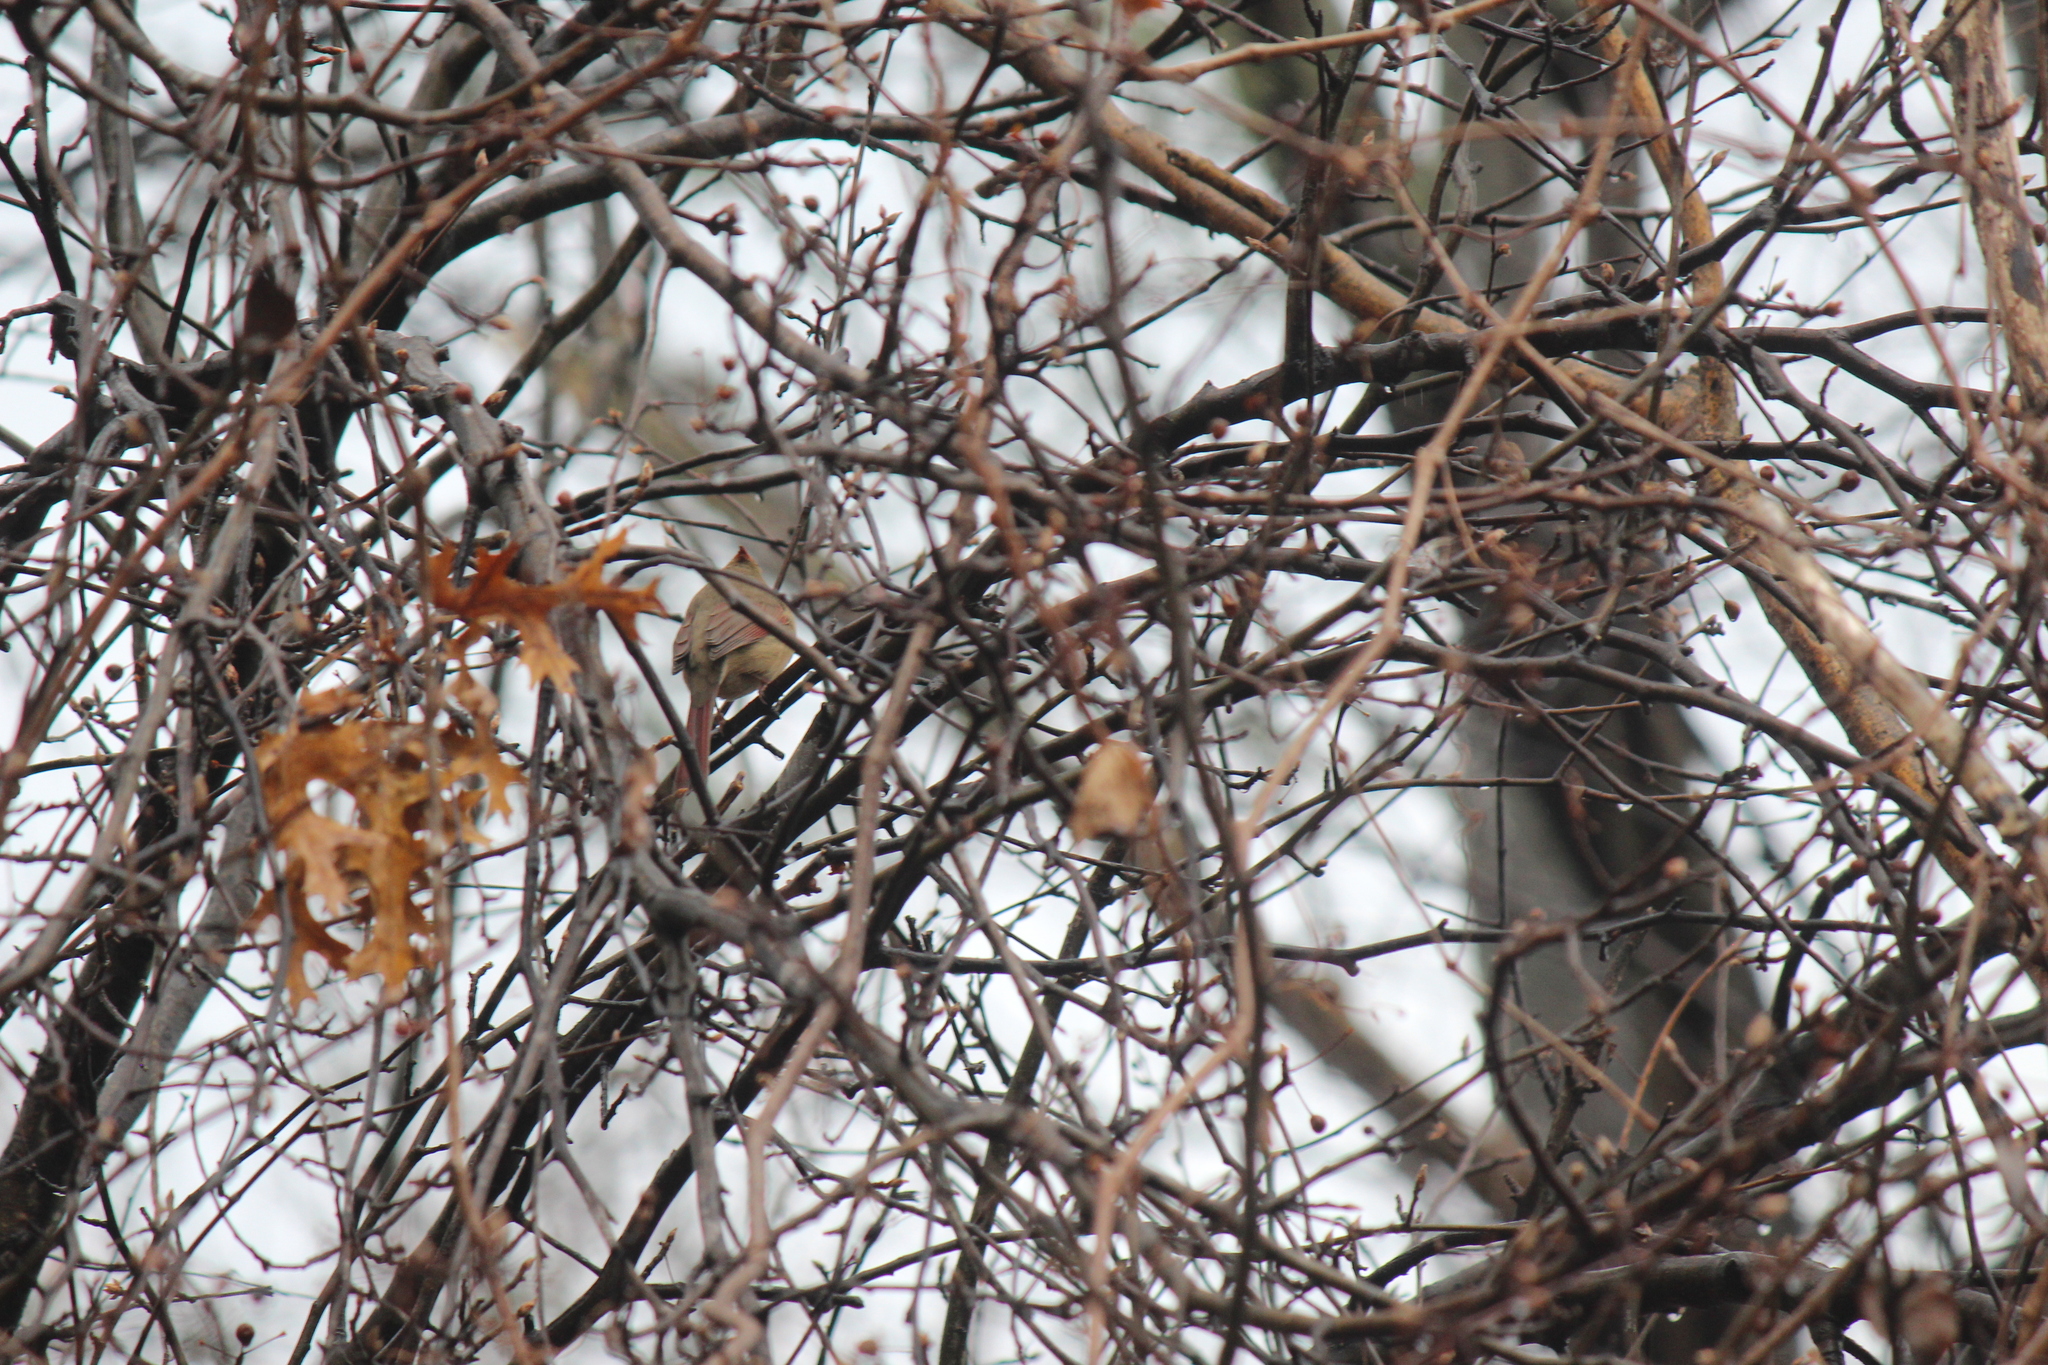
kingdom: Animalia
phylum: Chordata
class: Aves
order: Passeriformes
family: Cardinalidae
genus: Cardinalis
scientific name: Cardinalis cardinalis
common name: Northern cardinal
